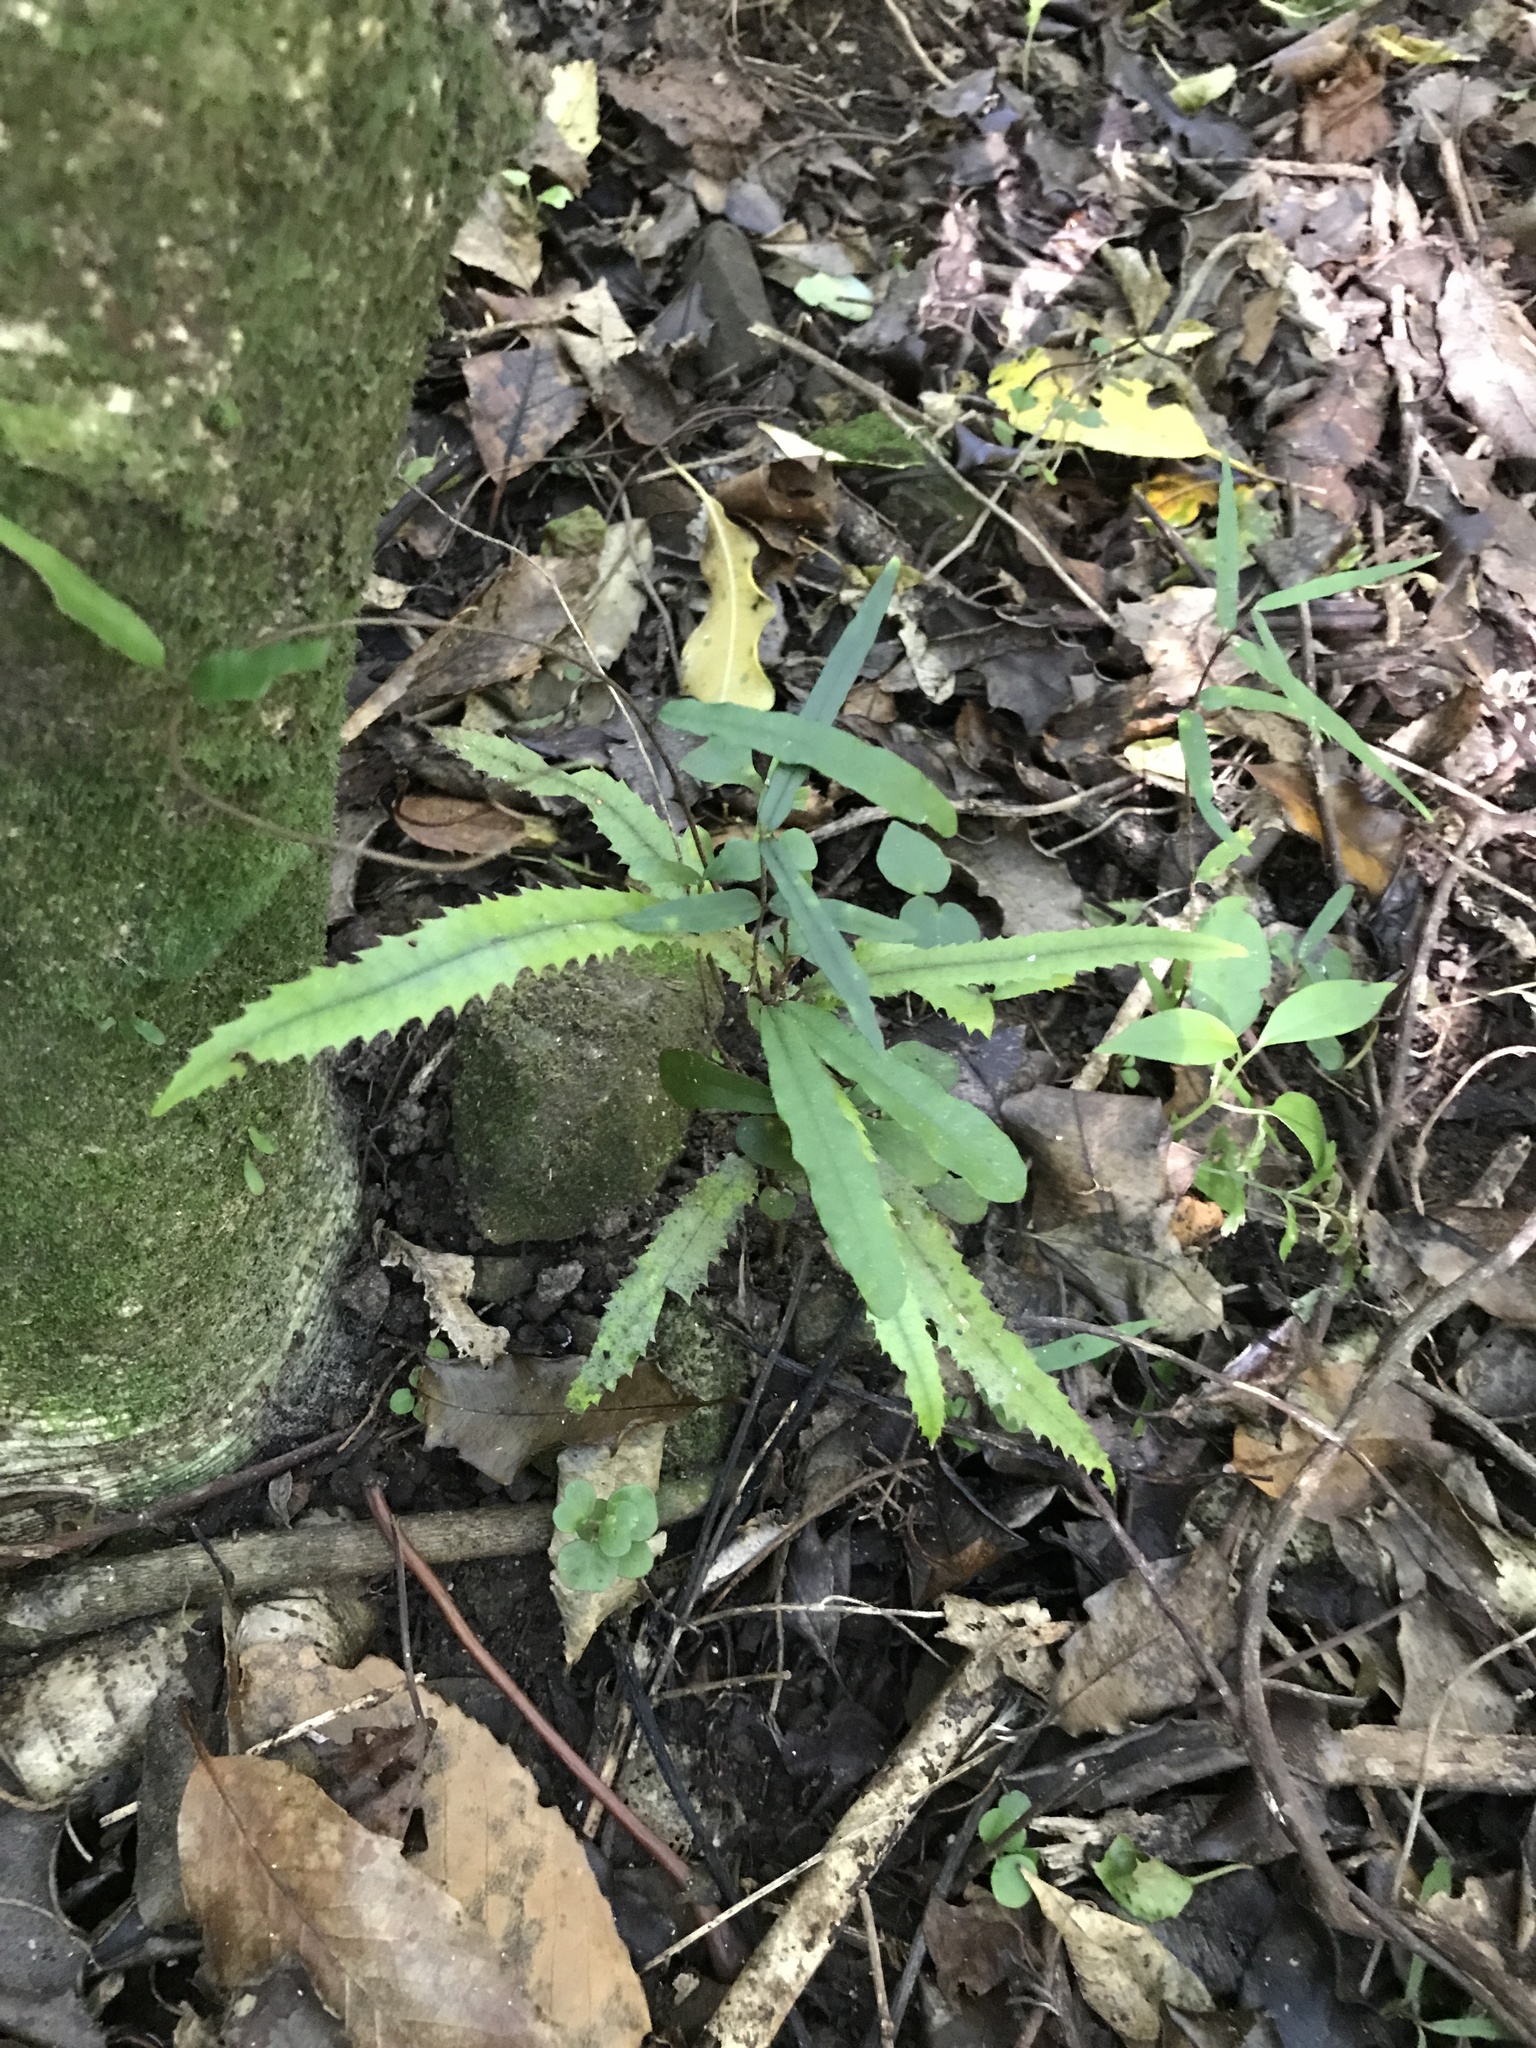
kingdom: Plantae
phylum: Tracheophyta
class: Magnoliopsida
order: Proteales
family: Proteaceae
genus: Knightia
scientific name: Knightia excelsa
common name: New zealand-honeysuckle
